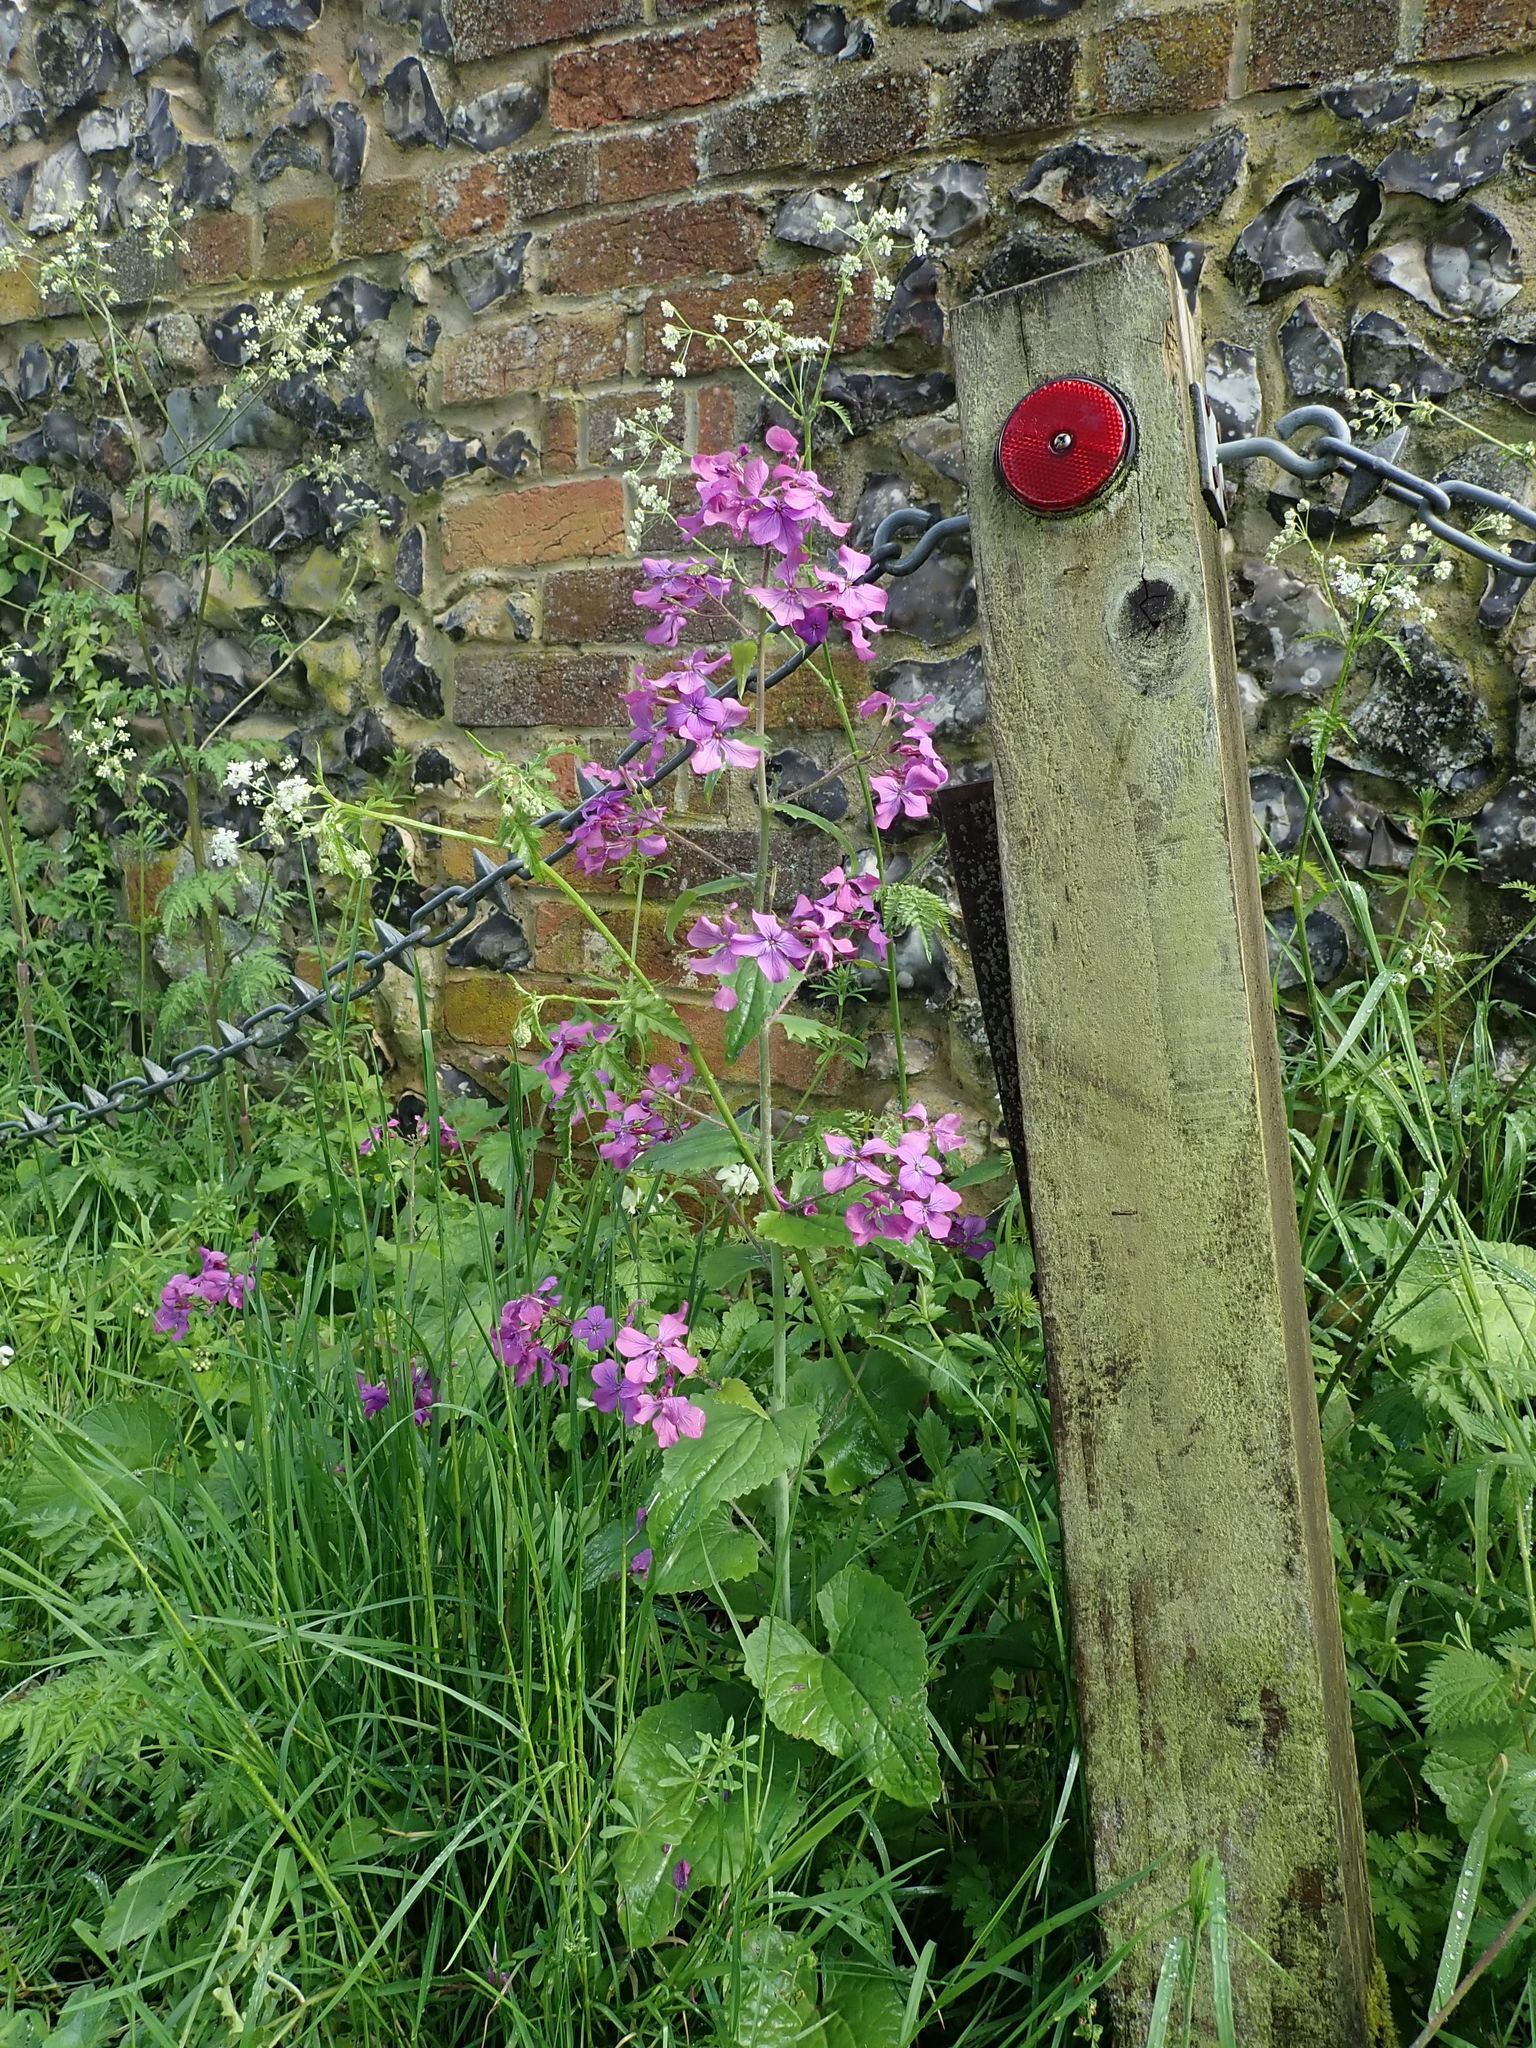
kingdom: Plantae
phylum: Tracheophyta
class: Magnoliopsida
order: Brassicales
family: Brassicaceae
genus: Lunaria
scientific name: Lunaria annua
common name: Honesty
